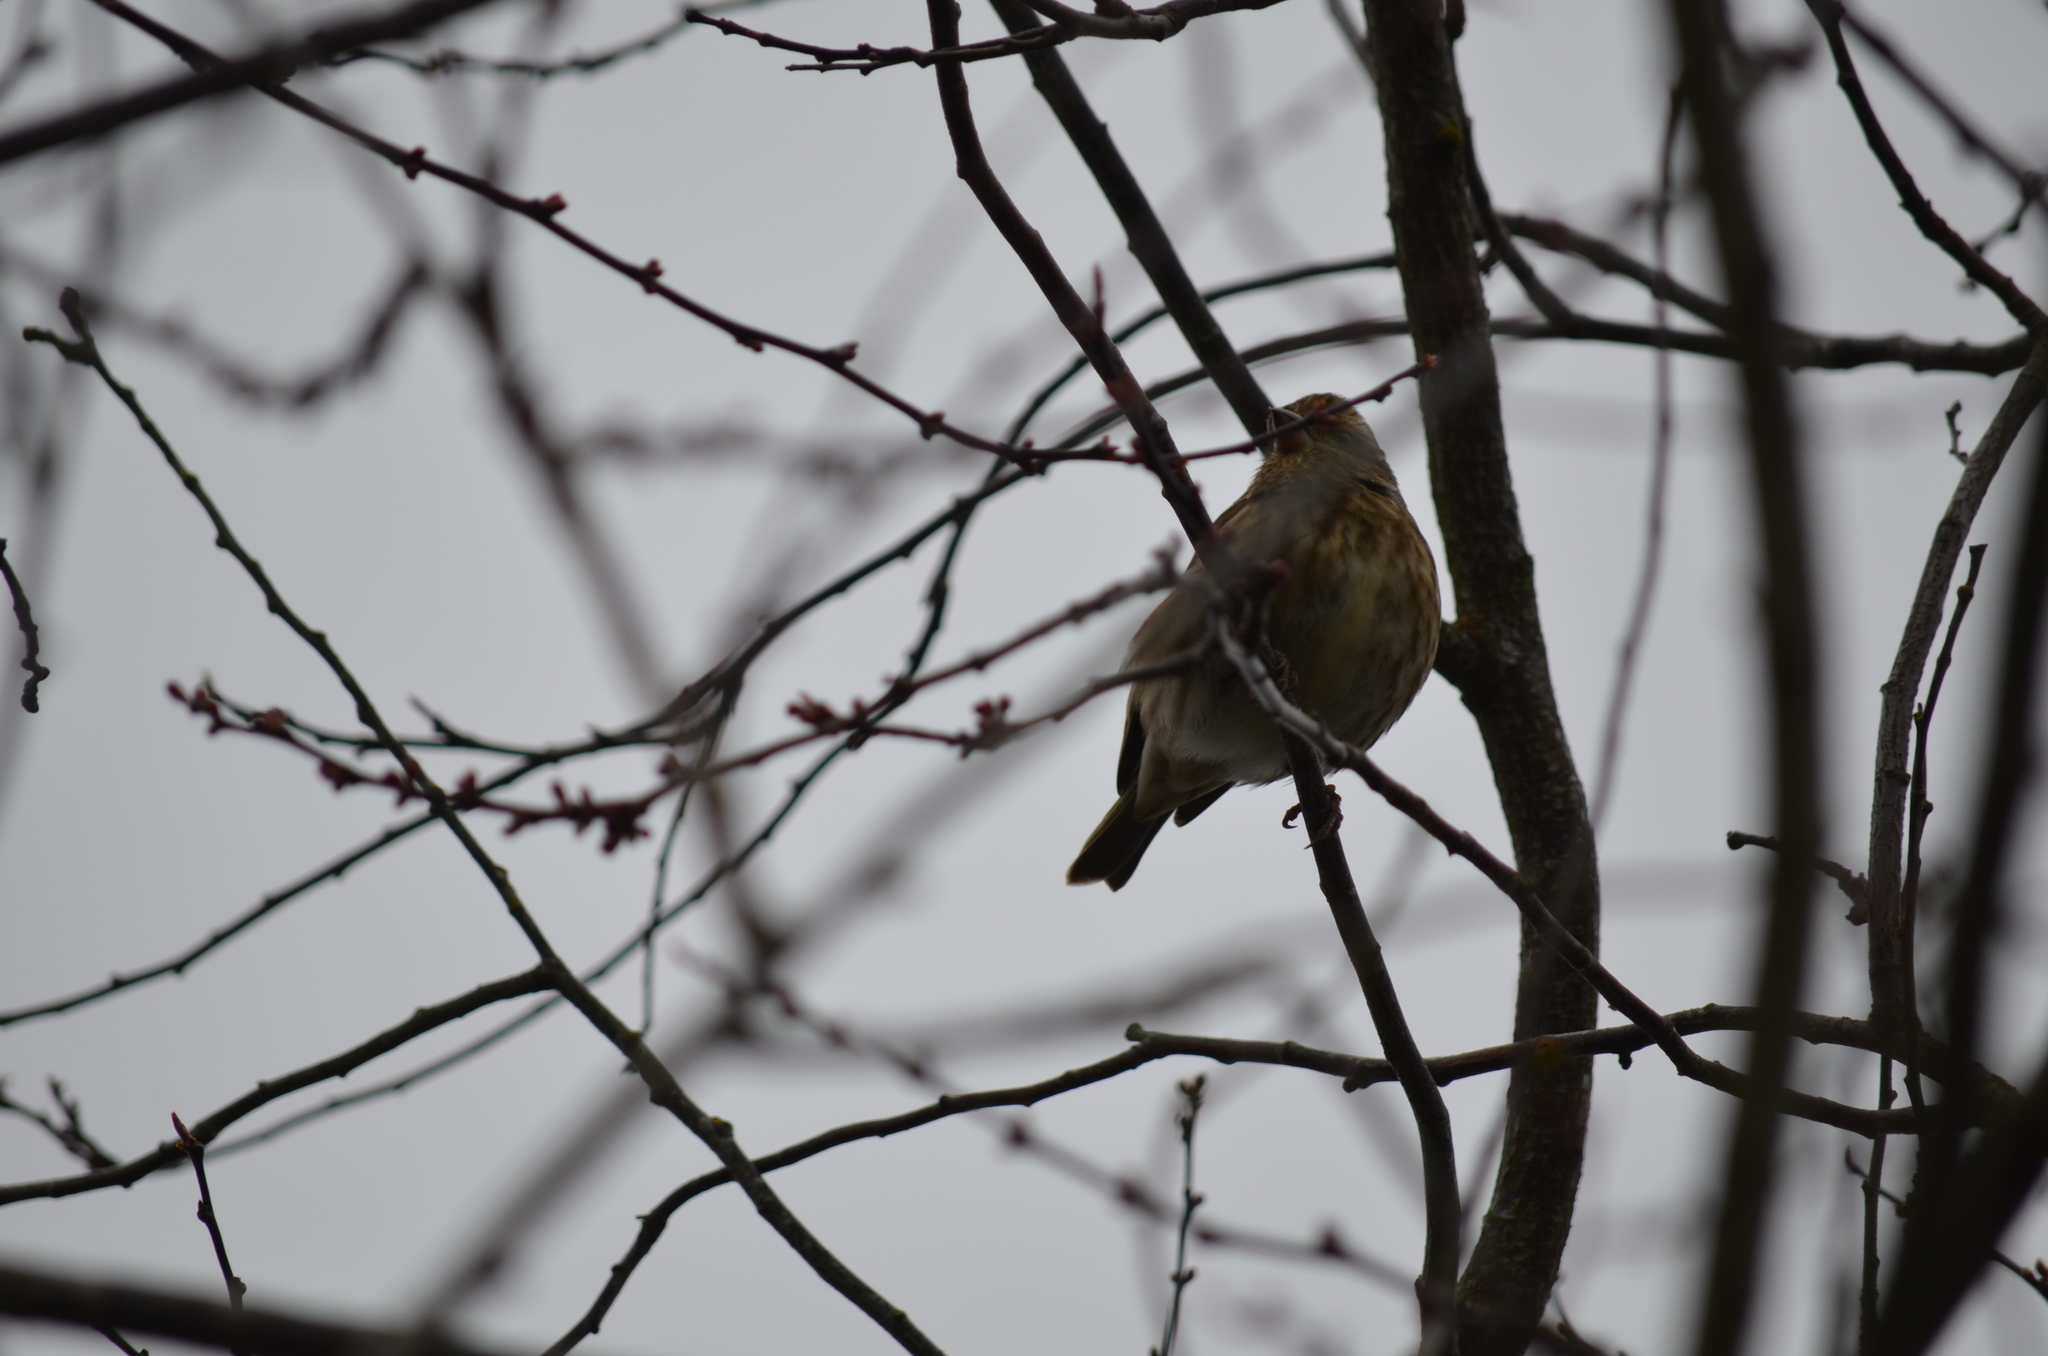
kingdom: Animalia
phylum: Chordata
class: Aves
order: Passeriformes
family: Fringillidae
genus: Haemorhous
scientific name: Haemorhous purpureus
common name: Purple finch
